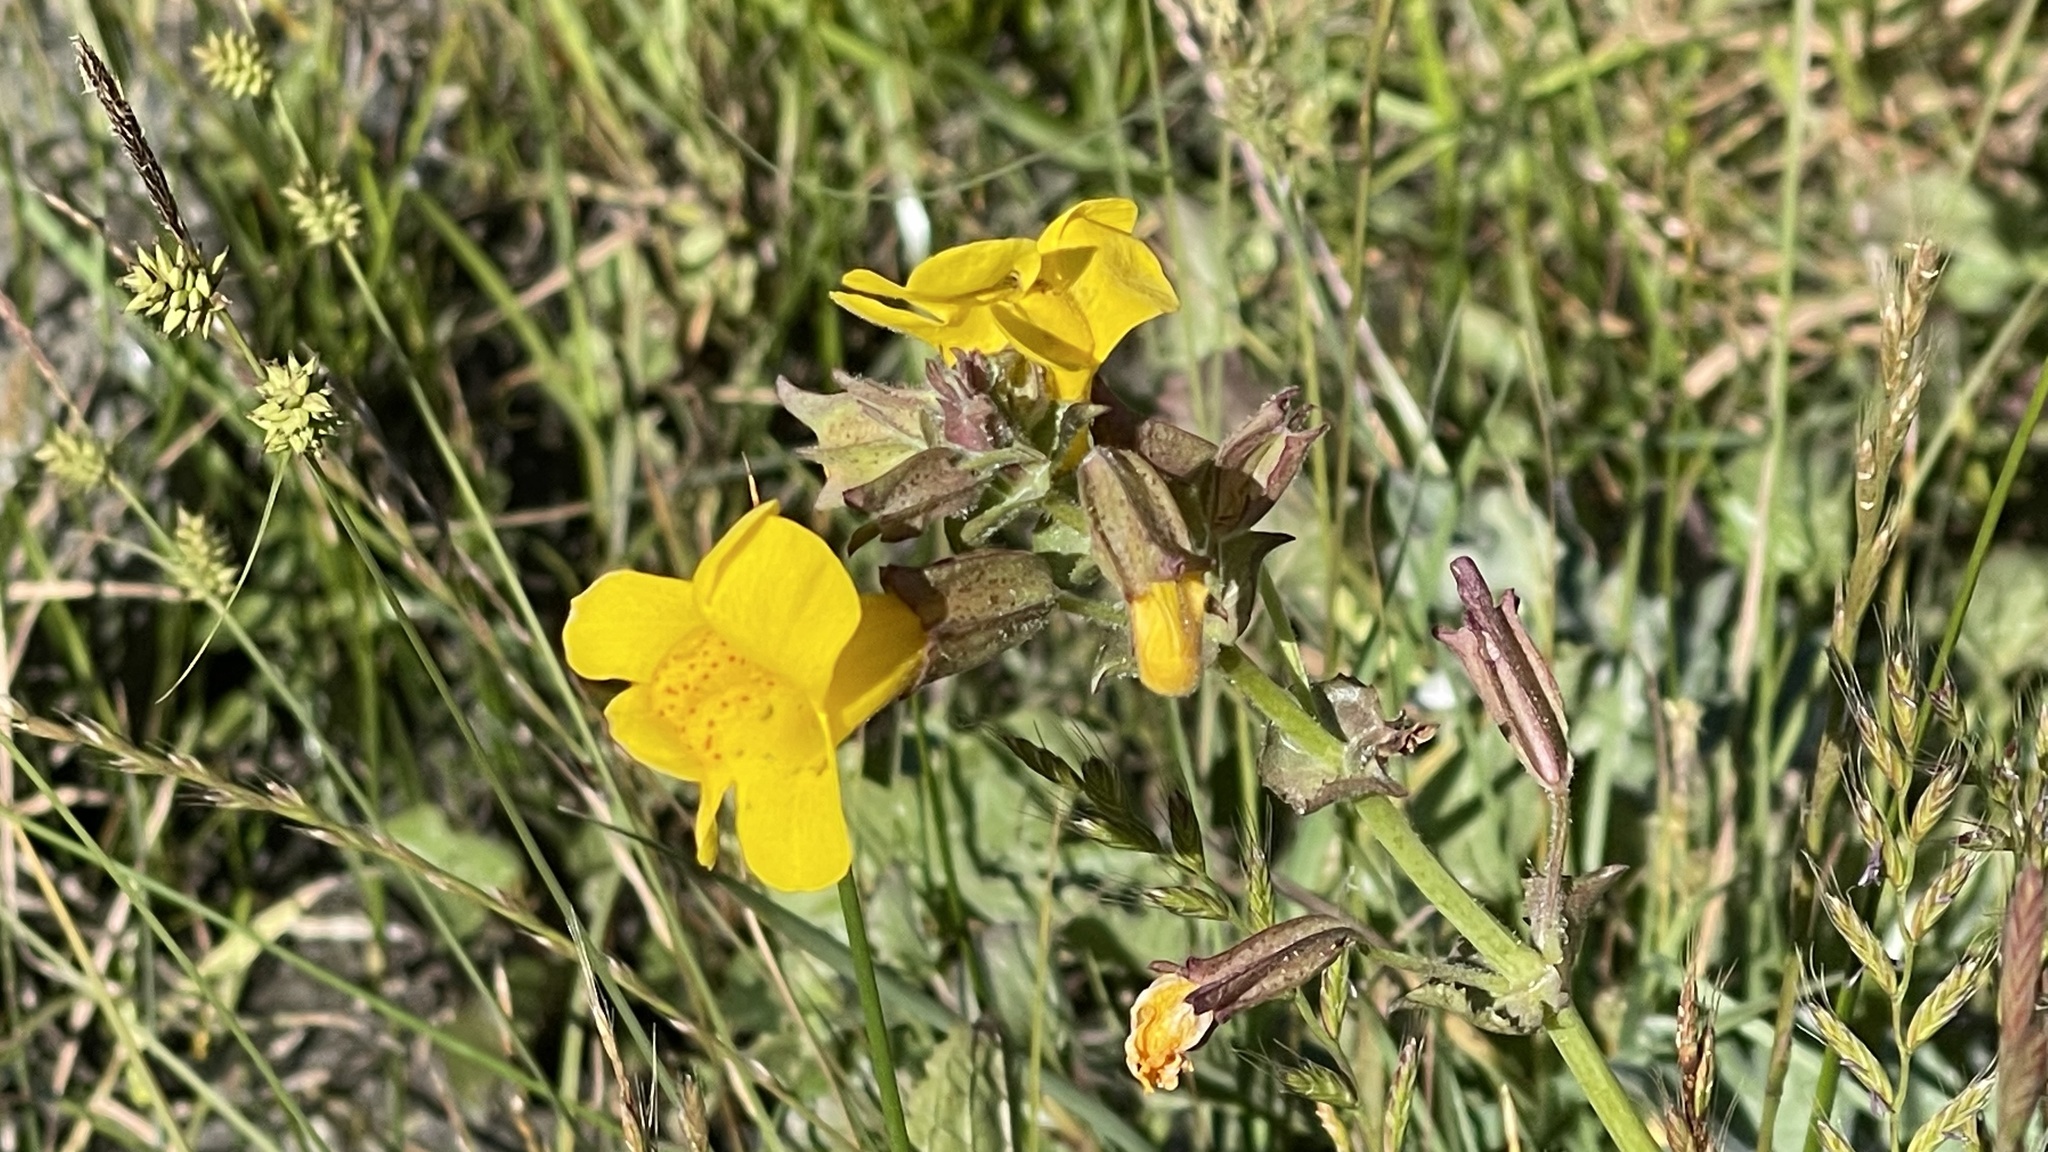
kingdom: Plantae
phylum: Tracheophyta
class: Magnoliopsida
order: Lamiales
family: Phrymaceae
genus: Erythranthe
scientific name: Erythranthe guttata
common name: Monkeyflower
